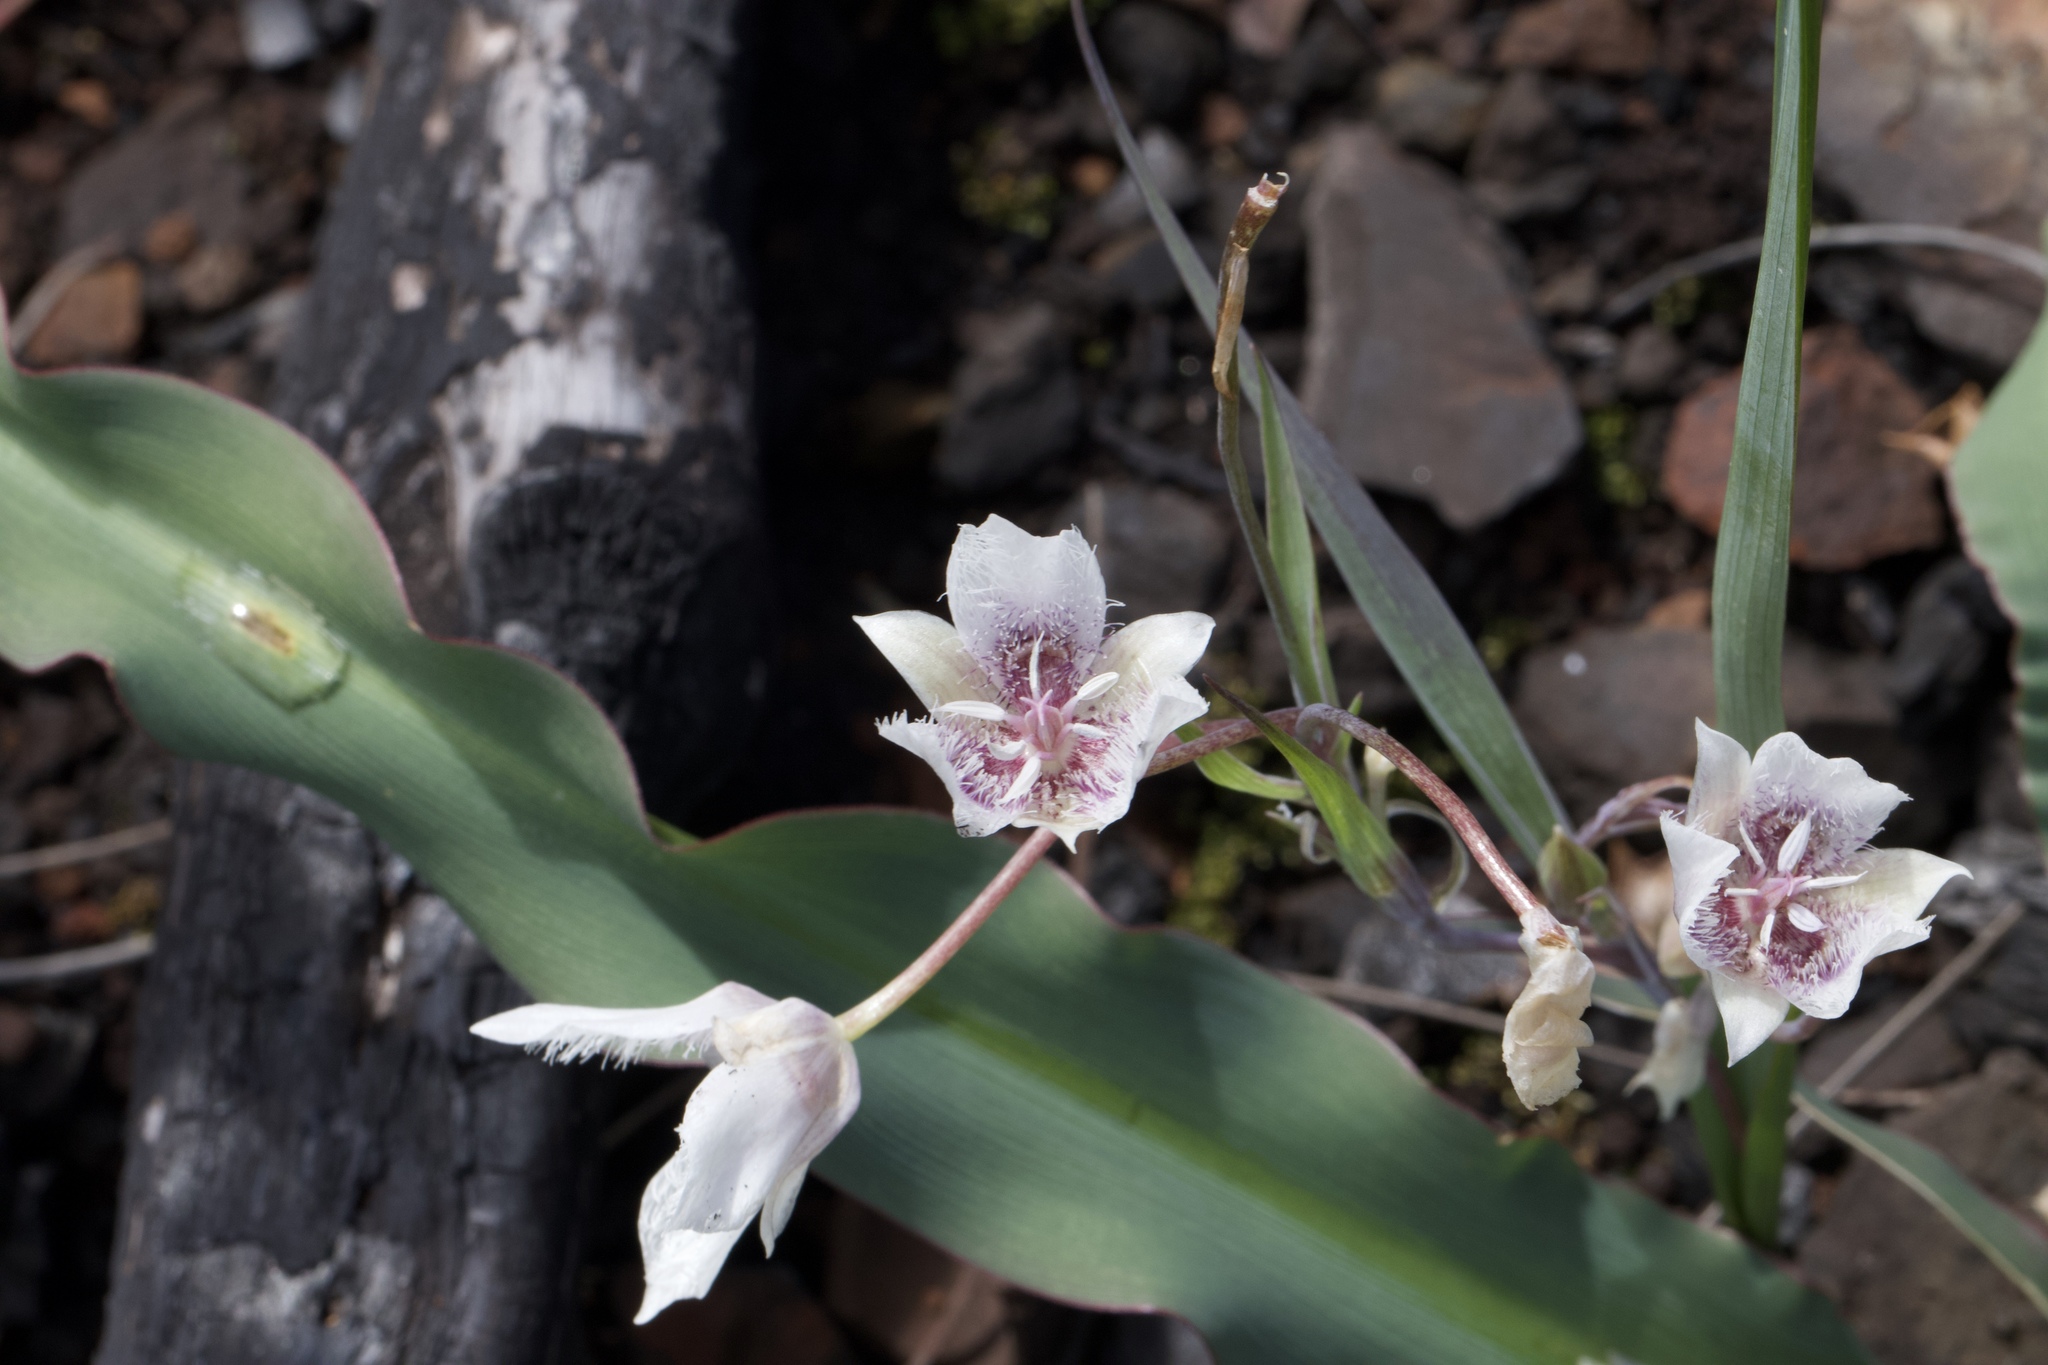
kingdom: Plantae
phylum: Tracheophyta
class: Liliopsida
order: Liliales
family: Liliaceae
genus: Calochortus
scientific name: Calochortus tolmiei
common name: Pussy-ears
